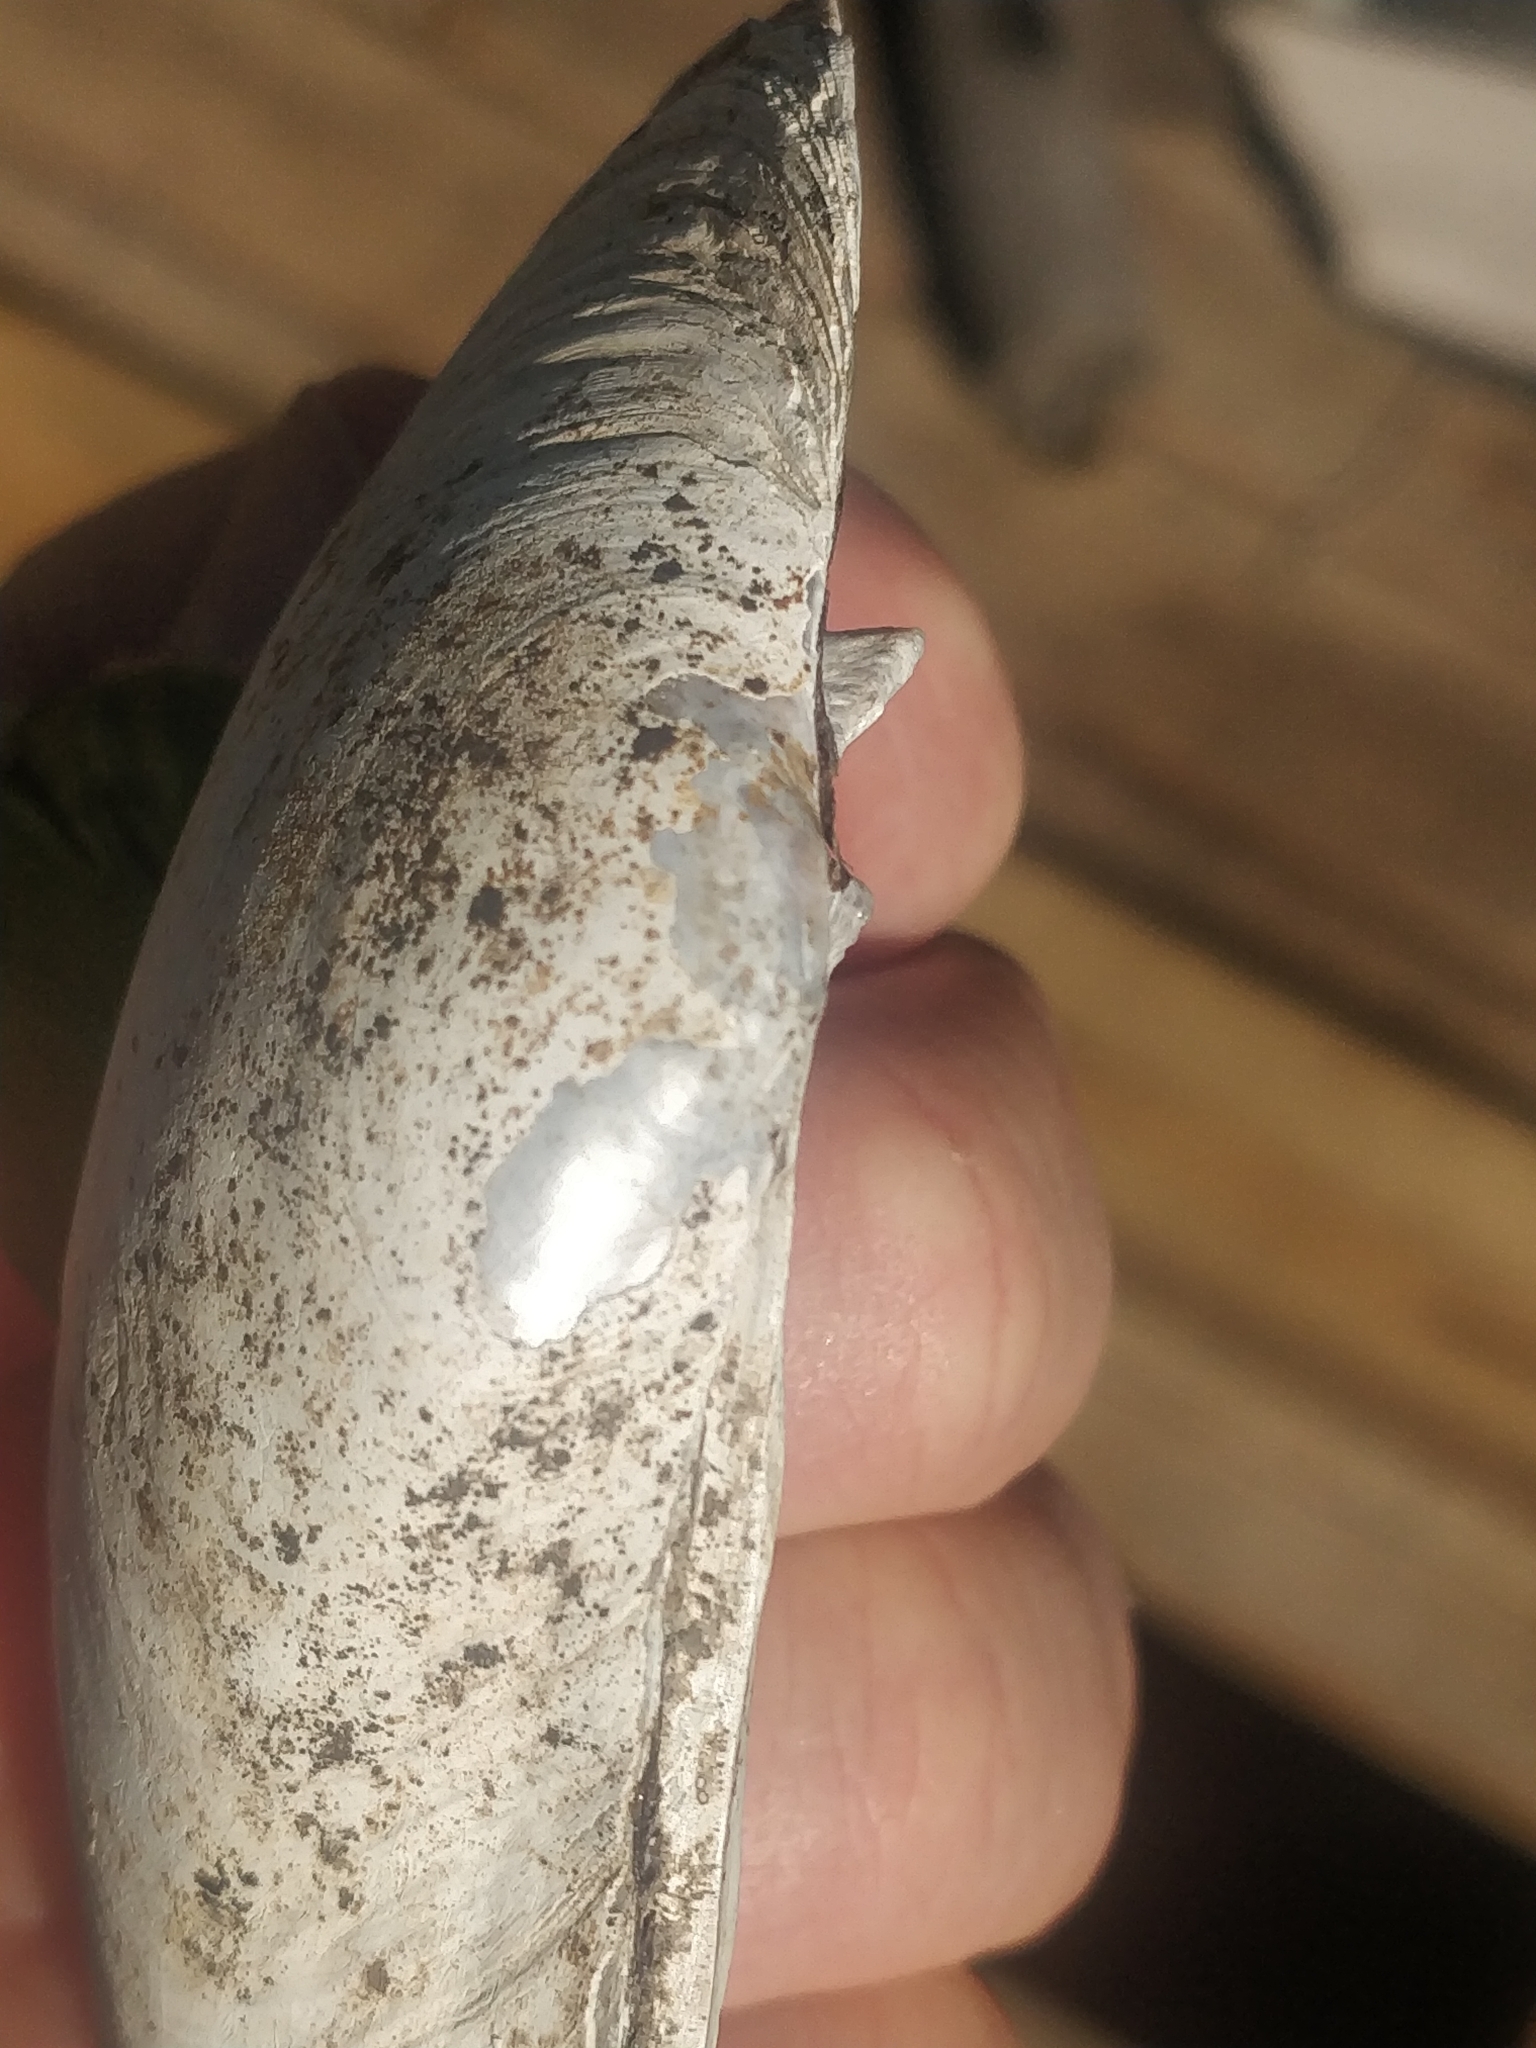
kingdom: Animalia
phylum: Mollusca
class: Bivalvia
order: Unionida
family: Unionidae
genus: Lampsilis
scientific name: Lampsilis cardium
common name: Plain pocketbook
